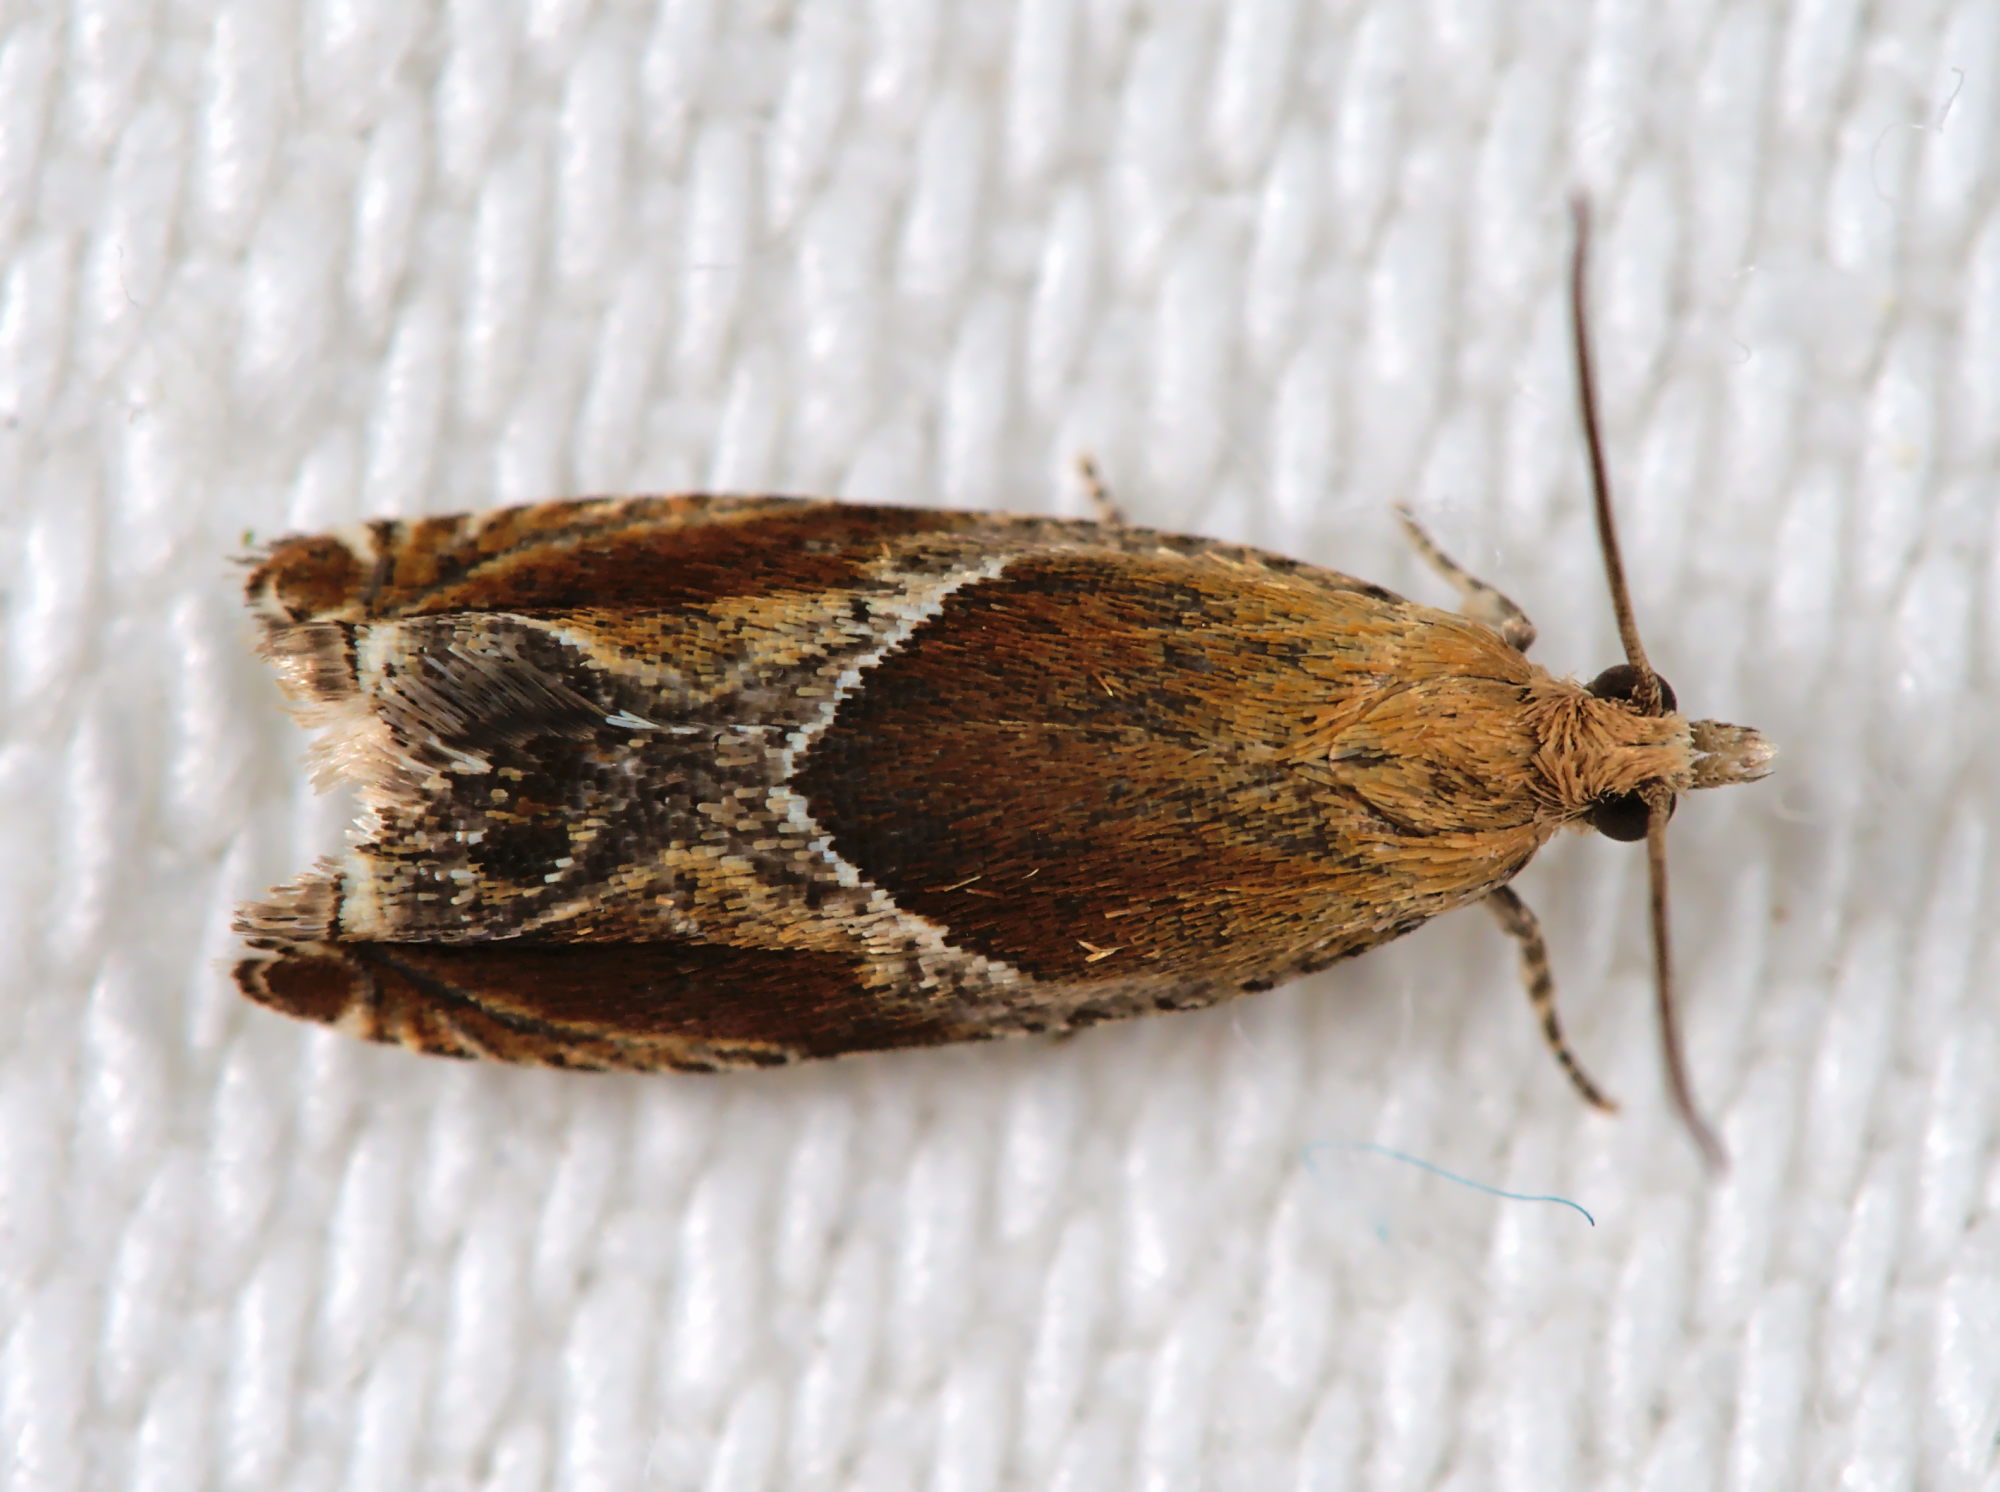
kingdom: Animalia
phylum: Arthropoda
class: Insecta
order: Lepidoptera
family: Tortricidae
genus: Ancylis
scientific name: Ancylis obtusana
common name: Small buckthorn roller
